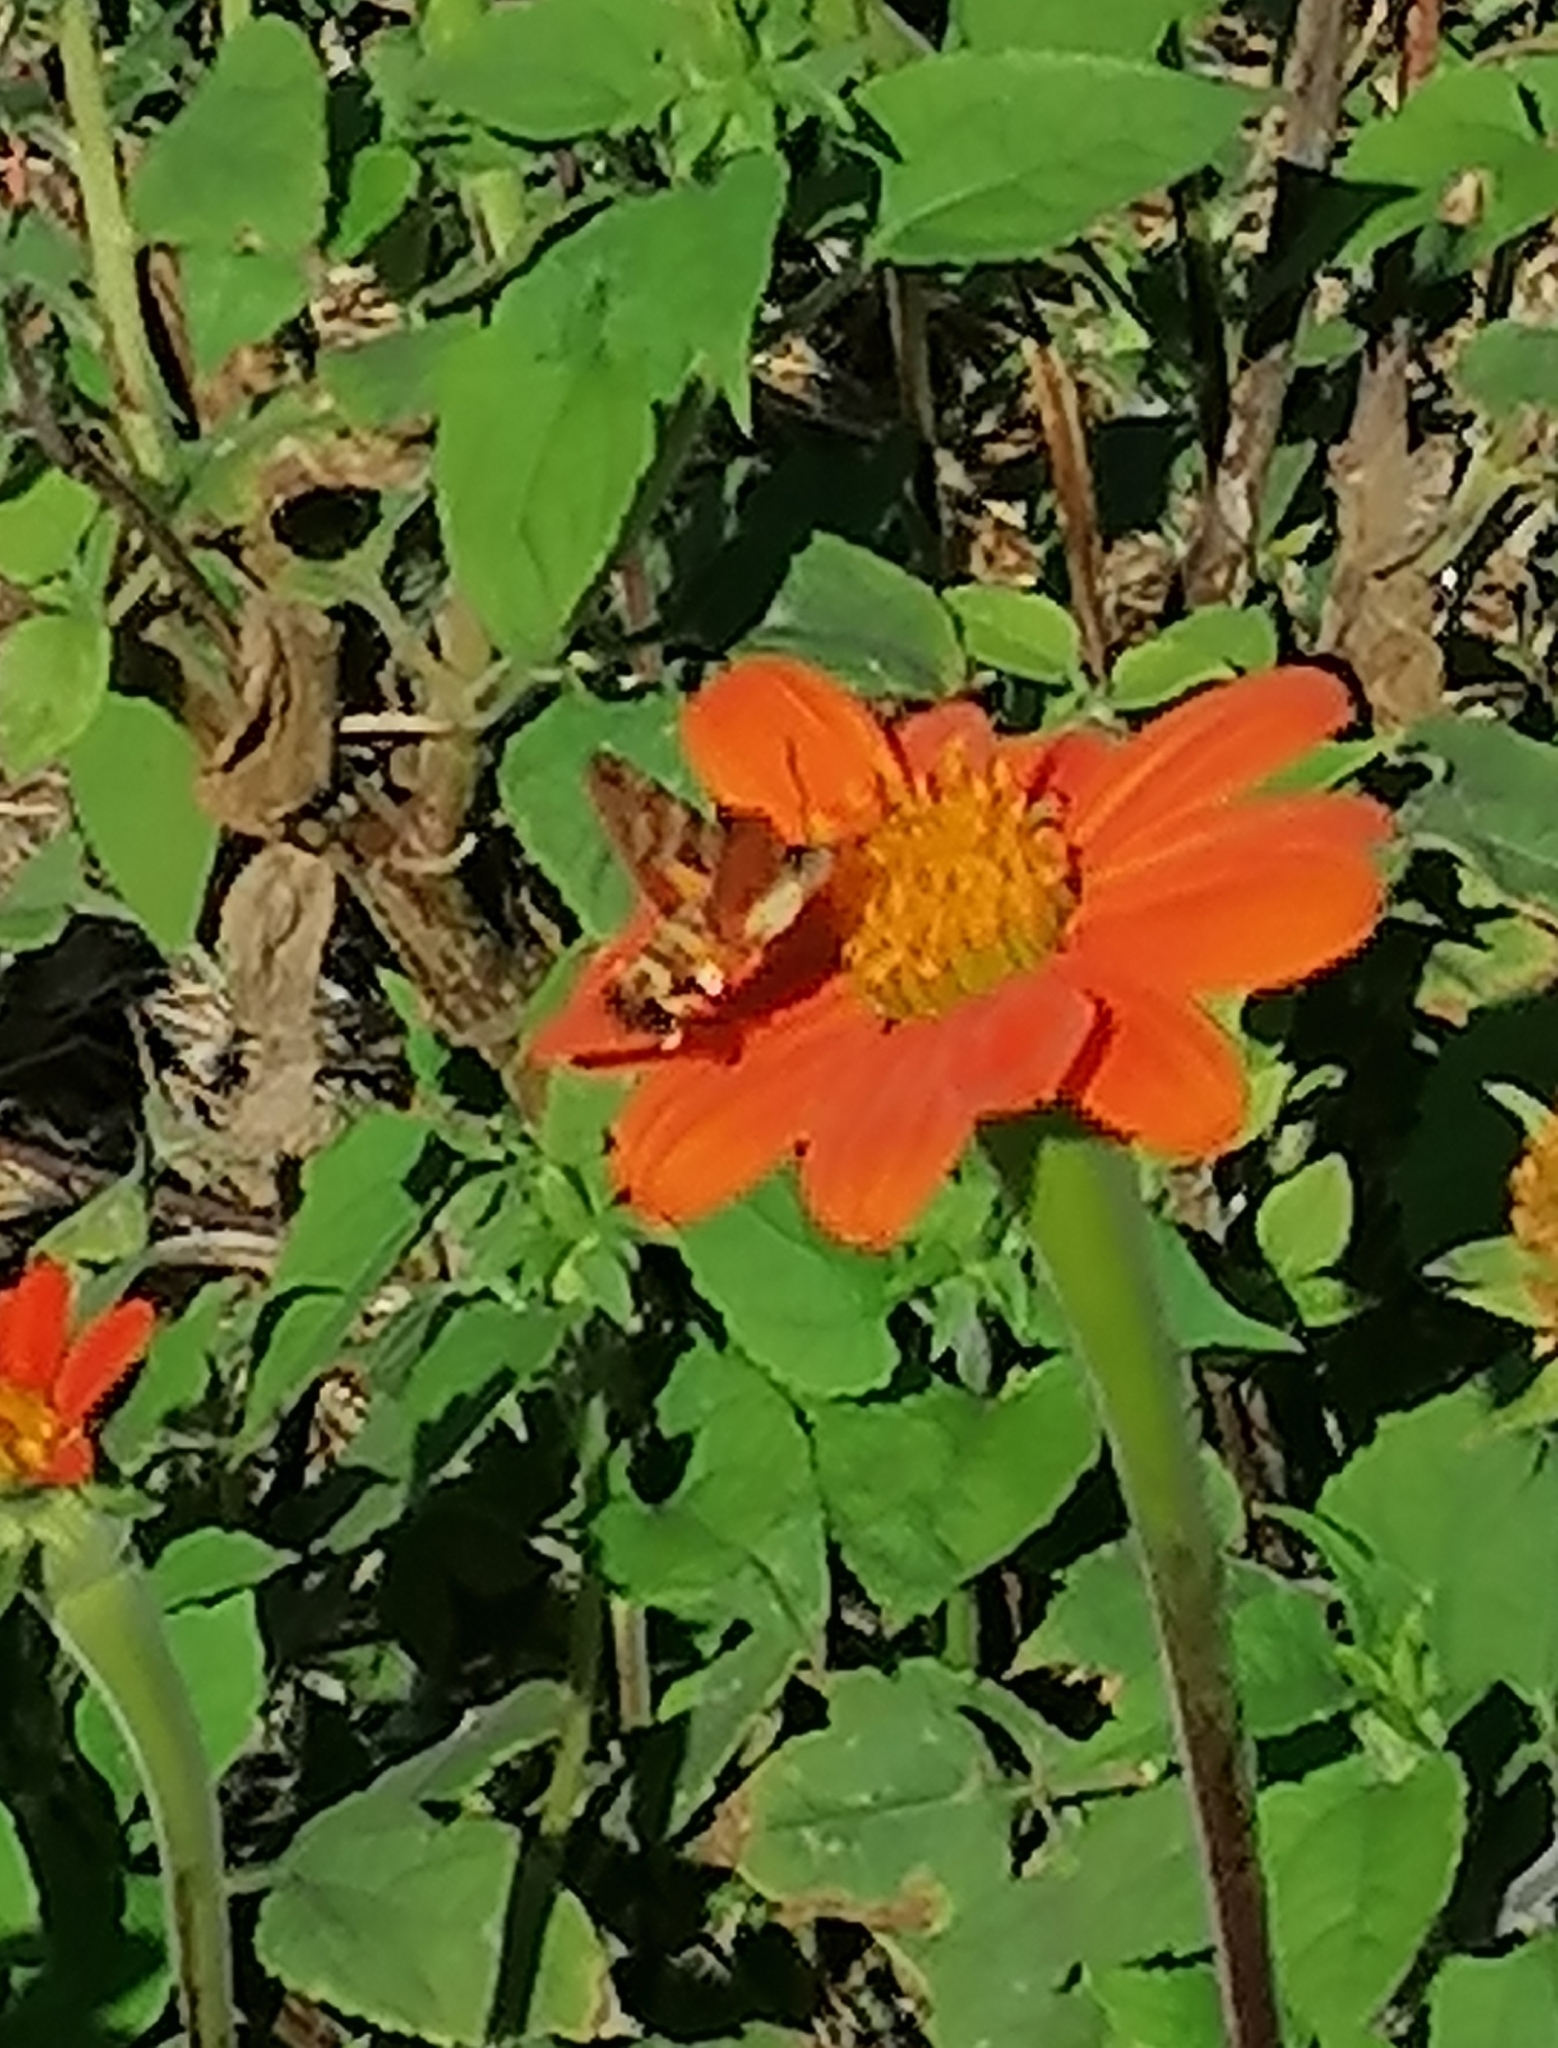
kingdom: Animalia
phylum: Arthropoda
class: Insecta
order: Lepidoptera
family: Sphingidae
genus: Macroglossum
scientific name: Macroglossum trochilus
